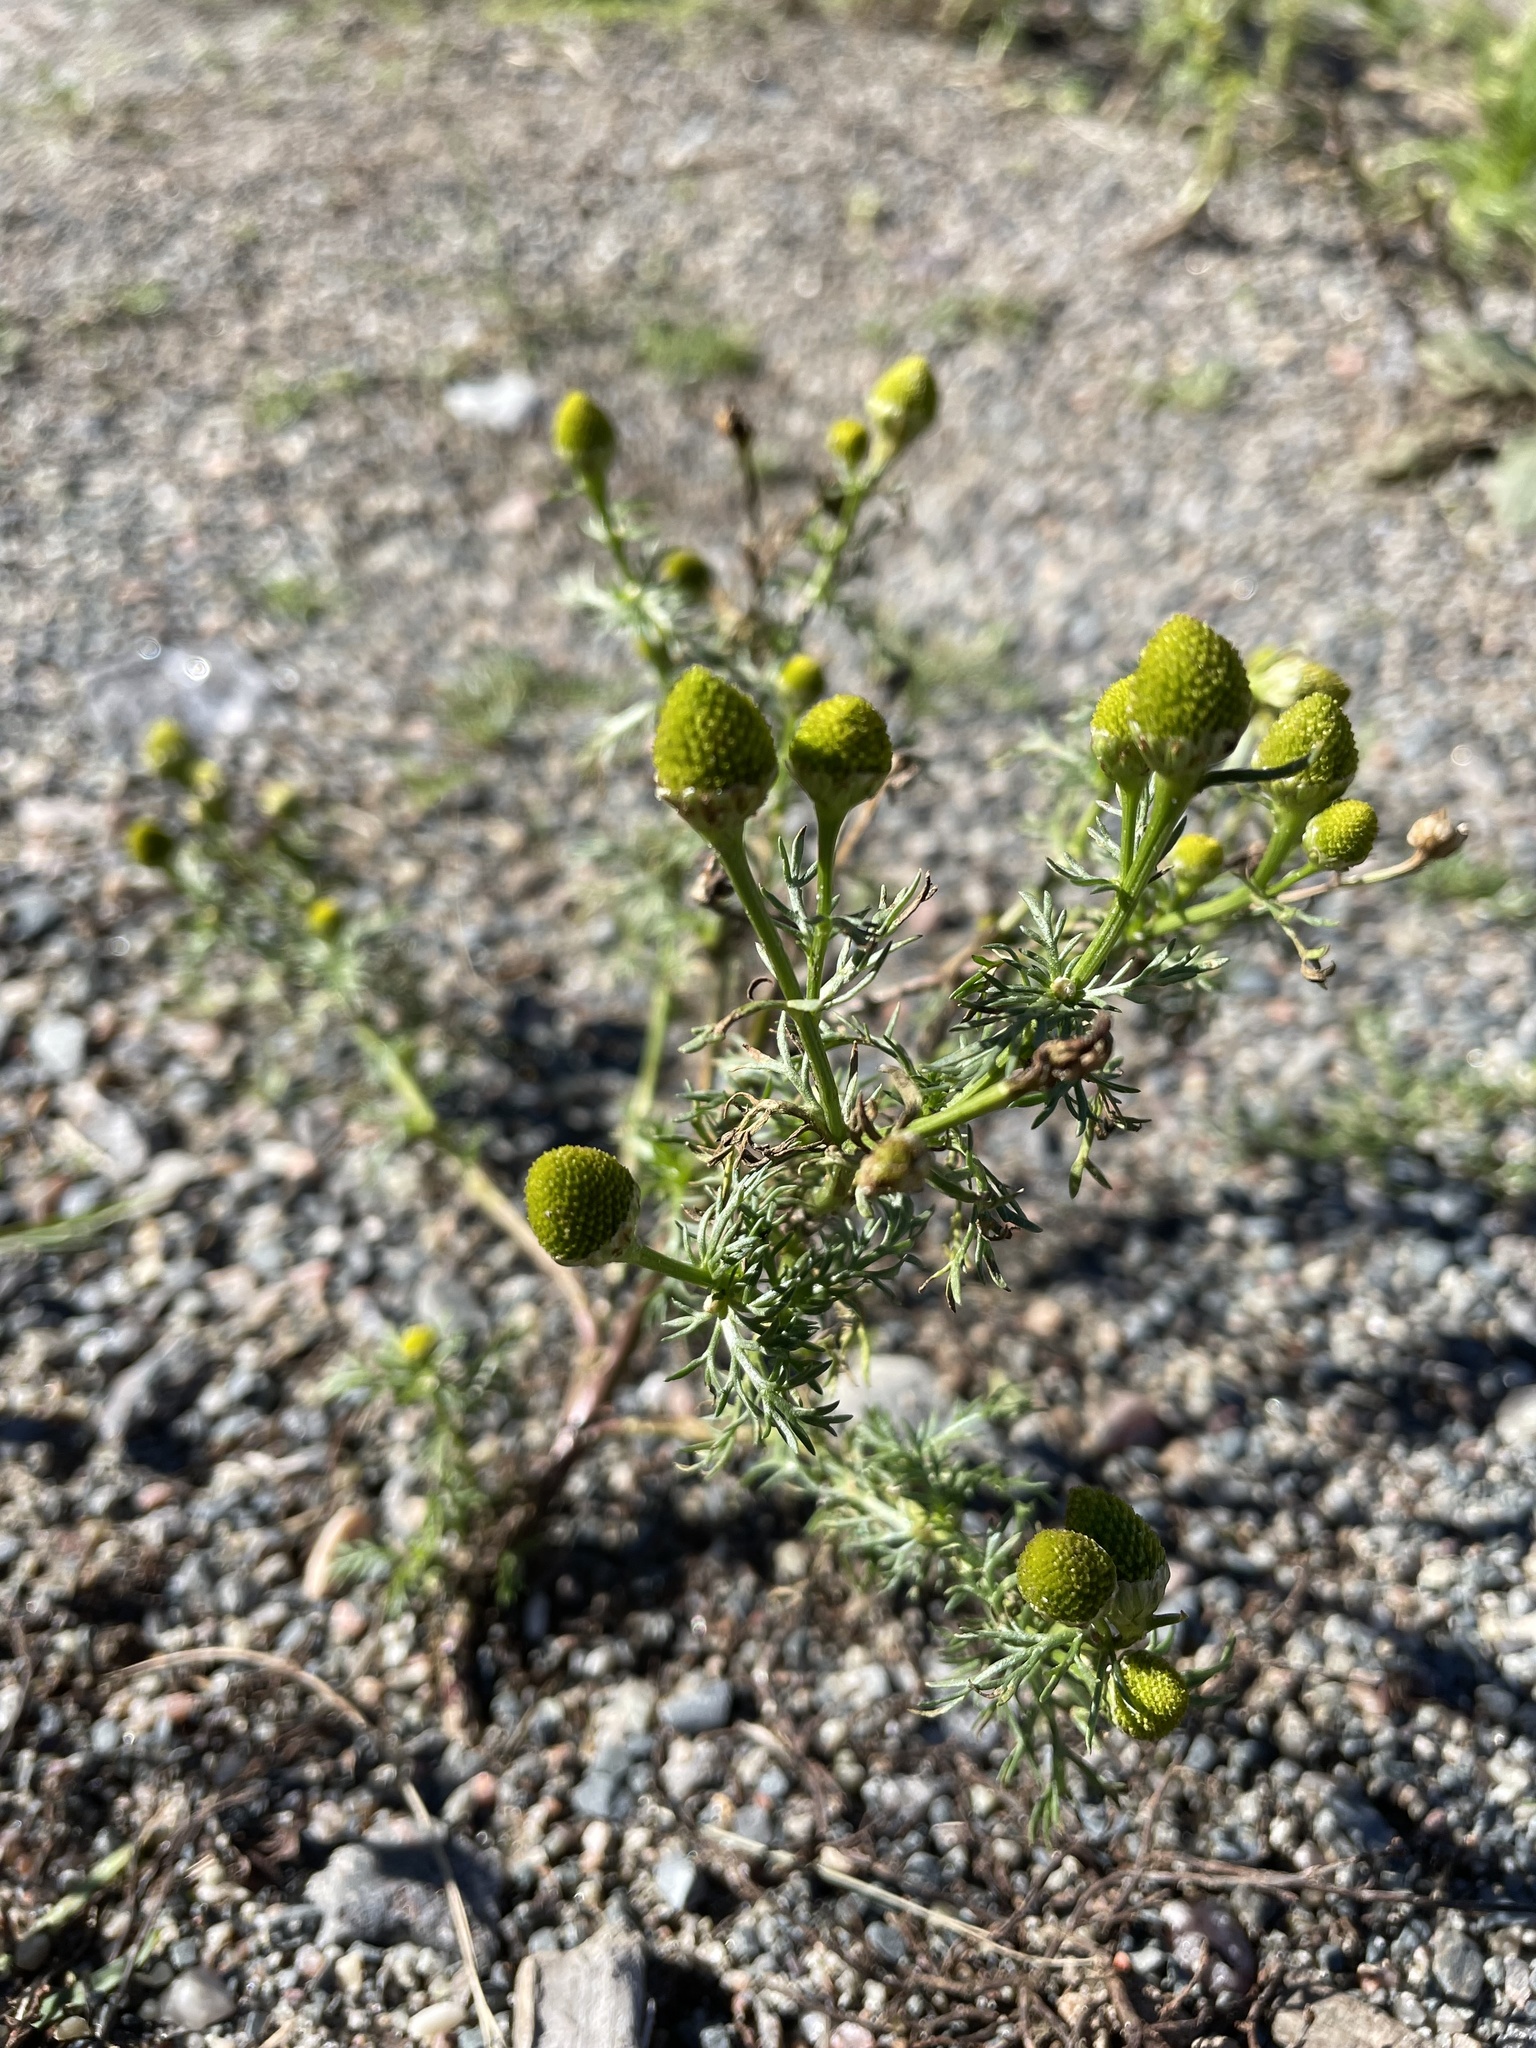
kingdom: Plantae
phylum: Tracheophyta
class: Magnoliopsida
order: Asterales
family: Asteraceae
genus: Matricaria
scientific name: Matricaria discoidea
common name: Disc mayweed
